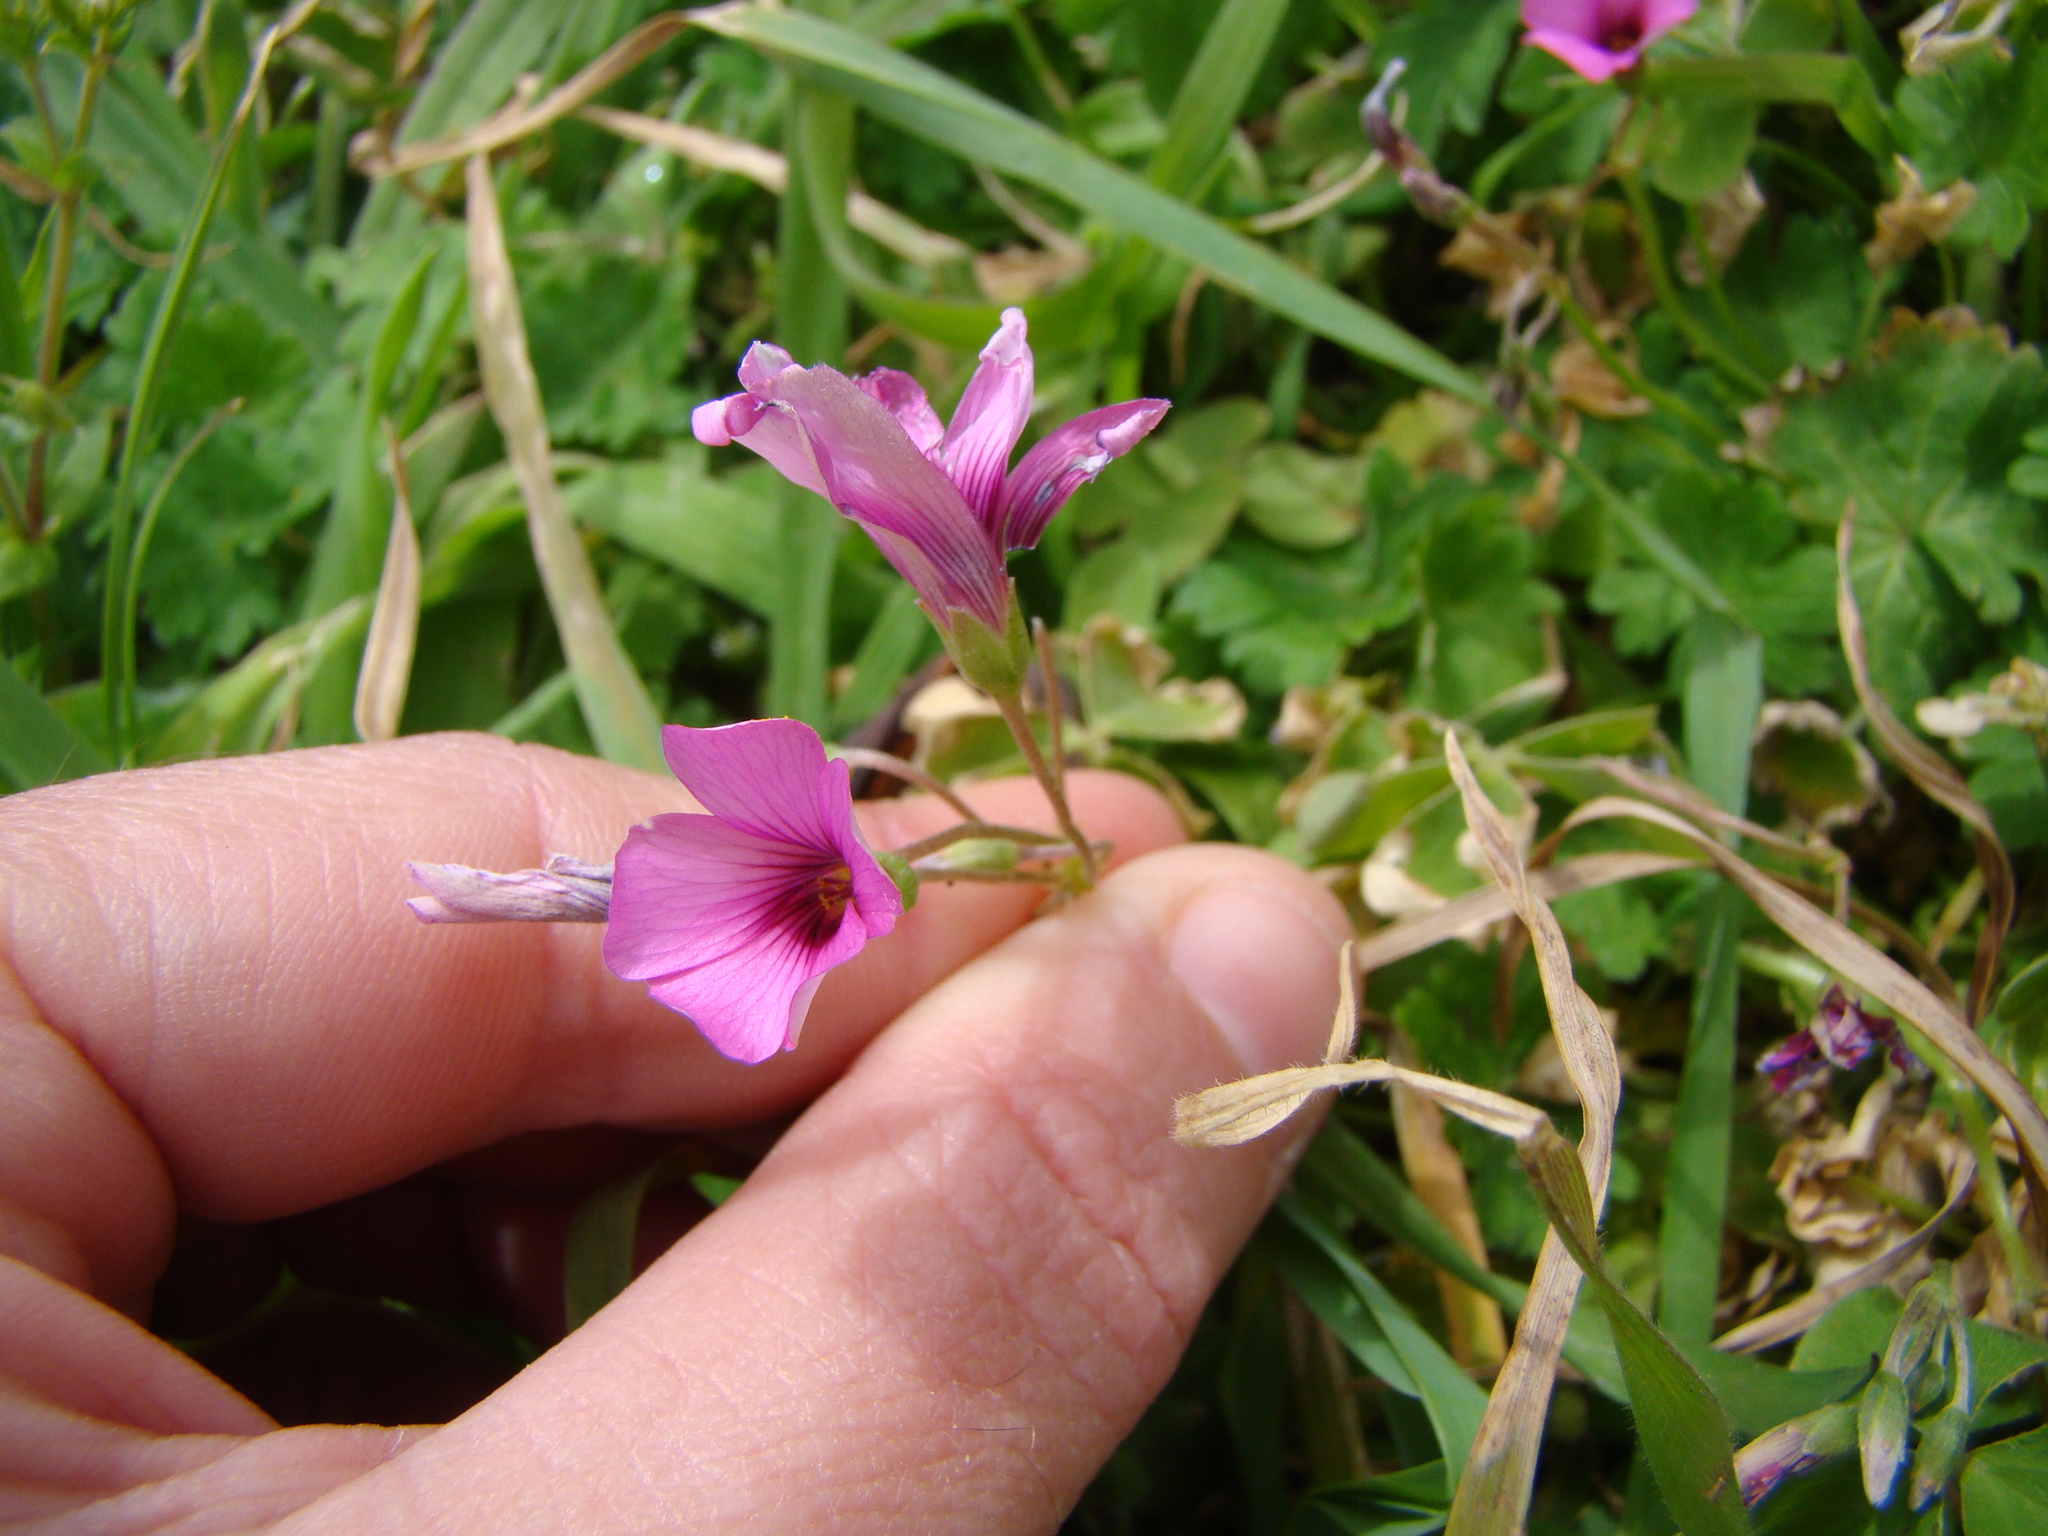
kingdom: Plantae
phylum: Tracheophyta
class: Magnoliopsida
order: Oxalidales
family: Oxalidaceae
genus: Oxalis
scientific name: Oxalis articulata
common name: Pink-sorrel
